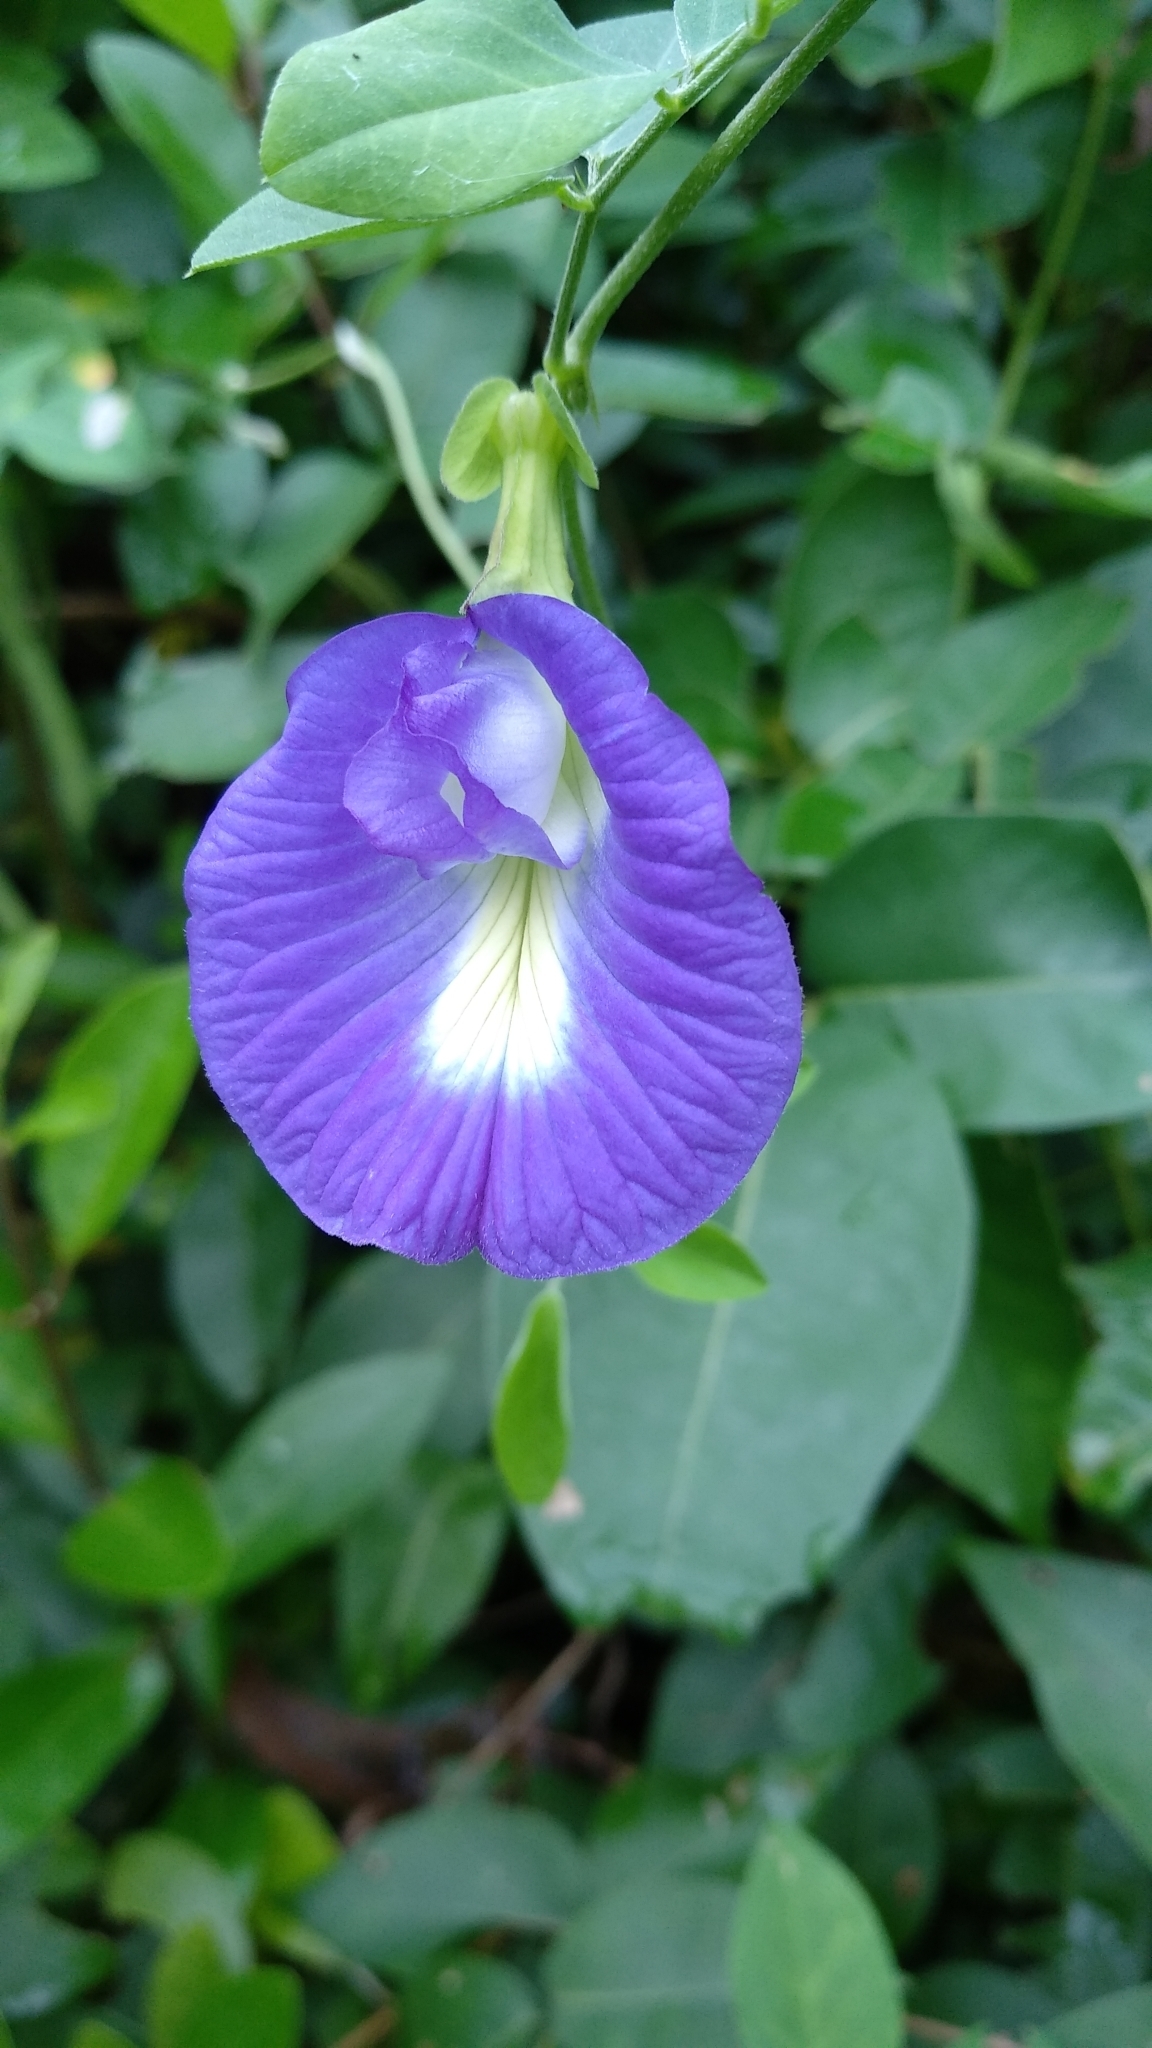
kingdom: Plantae
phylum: Tracheophyta
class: Magnoliopsida
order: Fabales
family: Fabaceae
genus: Clitoria
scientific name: Clitoria ternatea
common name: Asian pigeonwings
